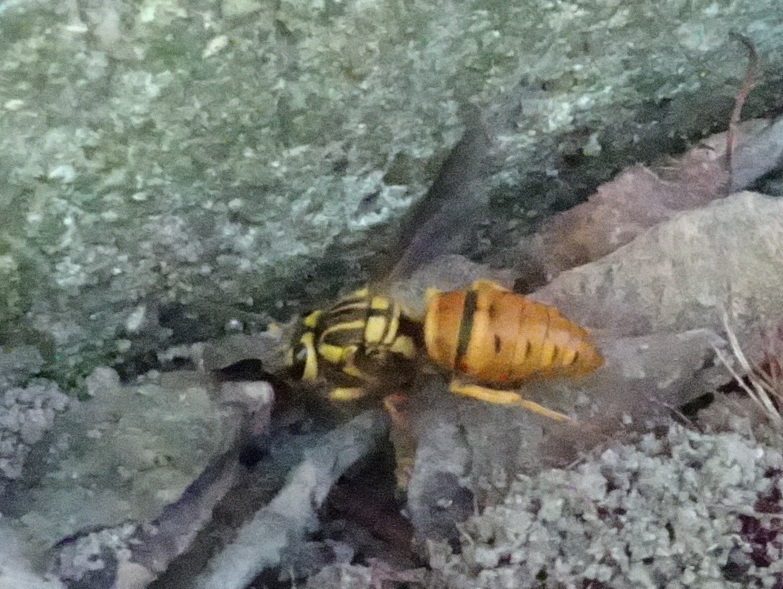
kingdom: Animalia
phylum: Arthropoda
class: Insecta
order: Hymenoptera
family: Vespidae
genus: Vespula
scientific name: Vespula squamosa
